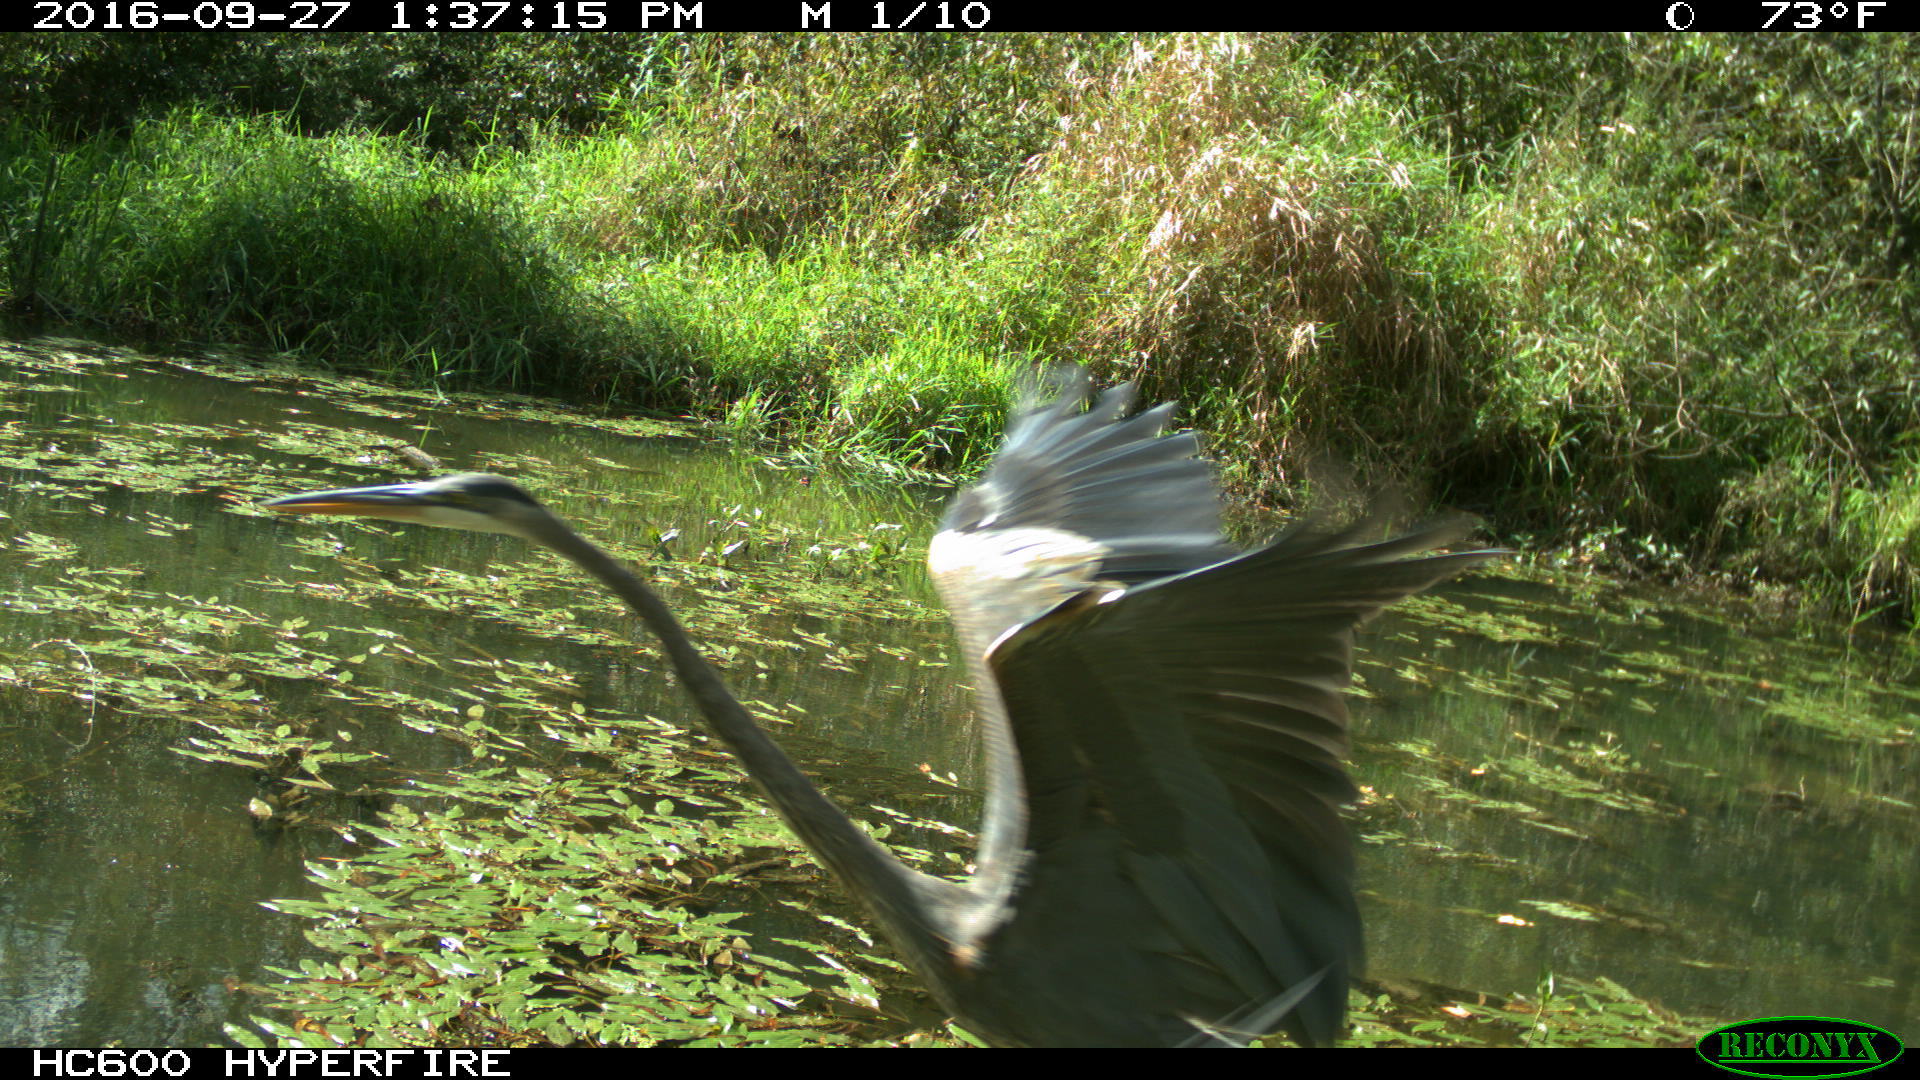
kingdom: Animalia
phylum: Chordata
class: Aves
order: Pelecaniformes
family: Ardeidae
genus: Ardea
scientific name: Ardea herodias
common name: Great blue heron
